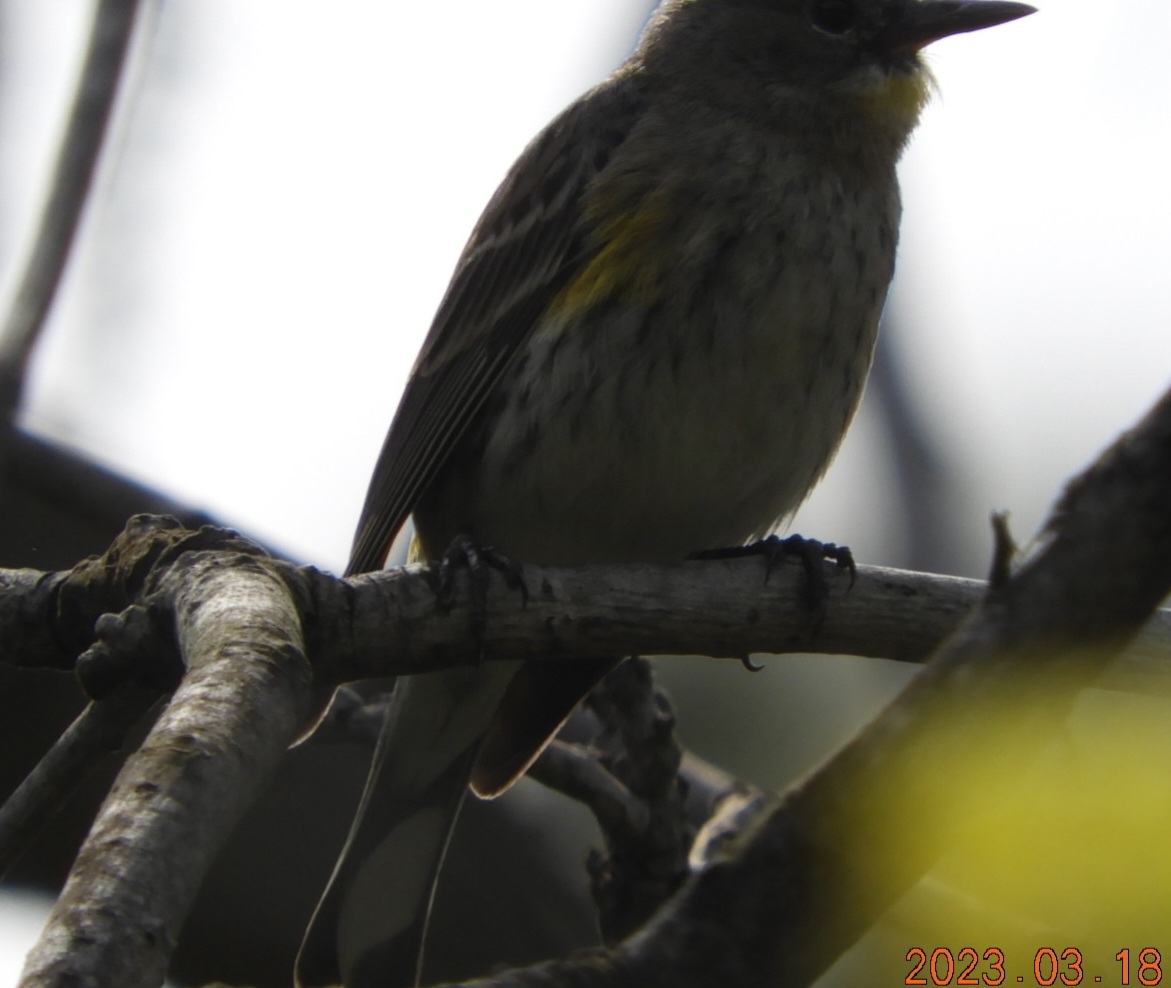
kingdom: Animalia
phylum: Chordata
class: Aves
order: Passeriformes
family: Parulidae
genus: Setophaga
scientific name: Setophaga coronata
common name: Myrtle warbler
